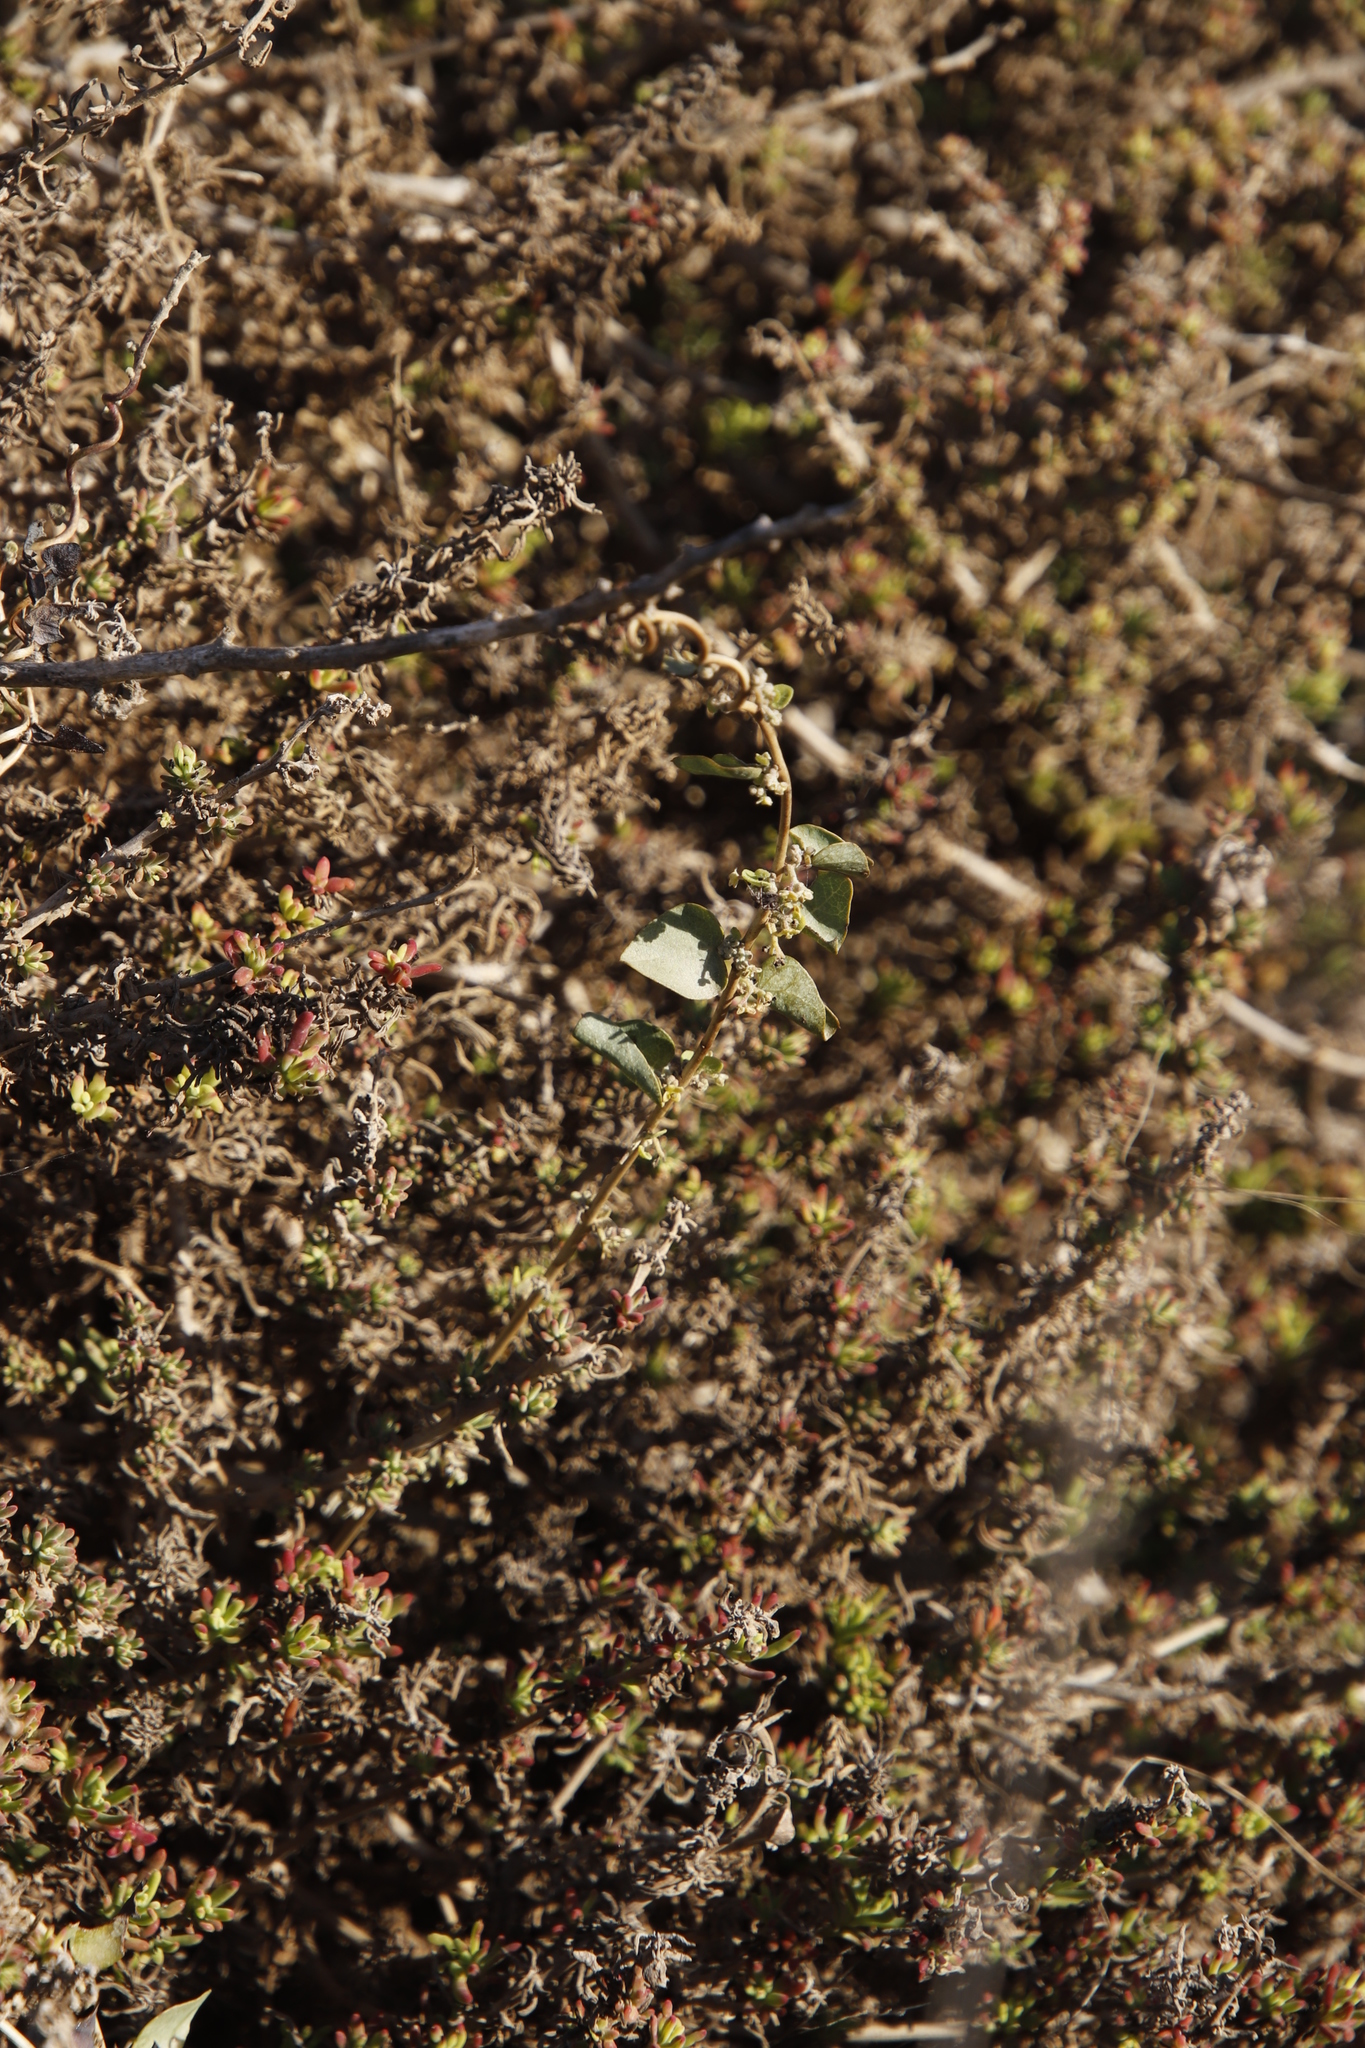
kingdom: Plantae
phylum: Tracheophyta
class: Magnoliopsida
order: Caryophyllales
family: Aizoaceae
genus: Tetragonia
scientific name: Tetragonia fruticosa
